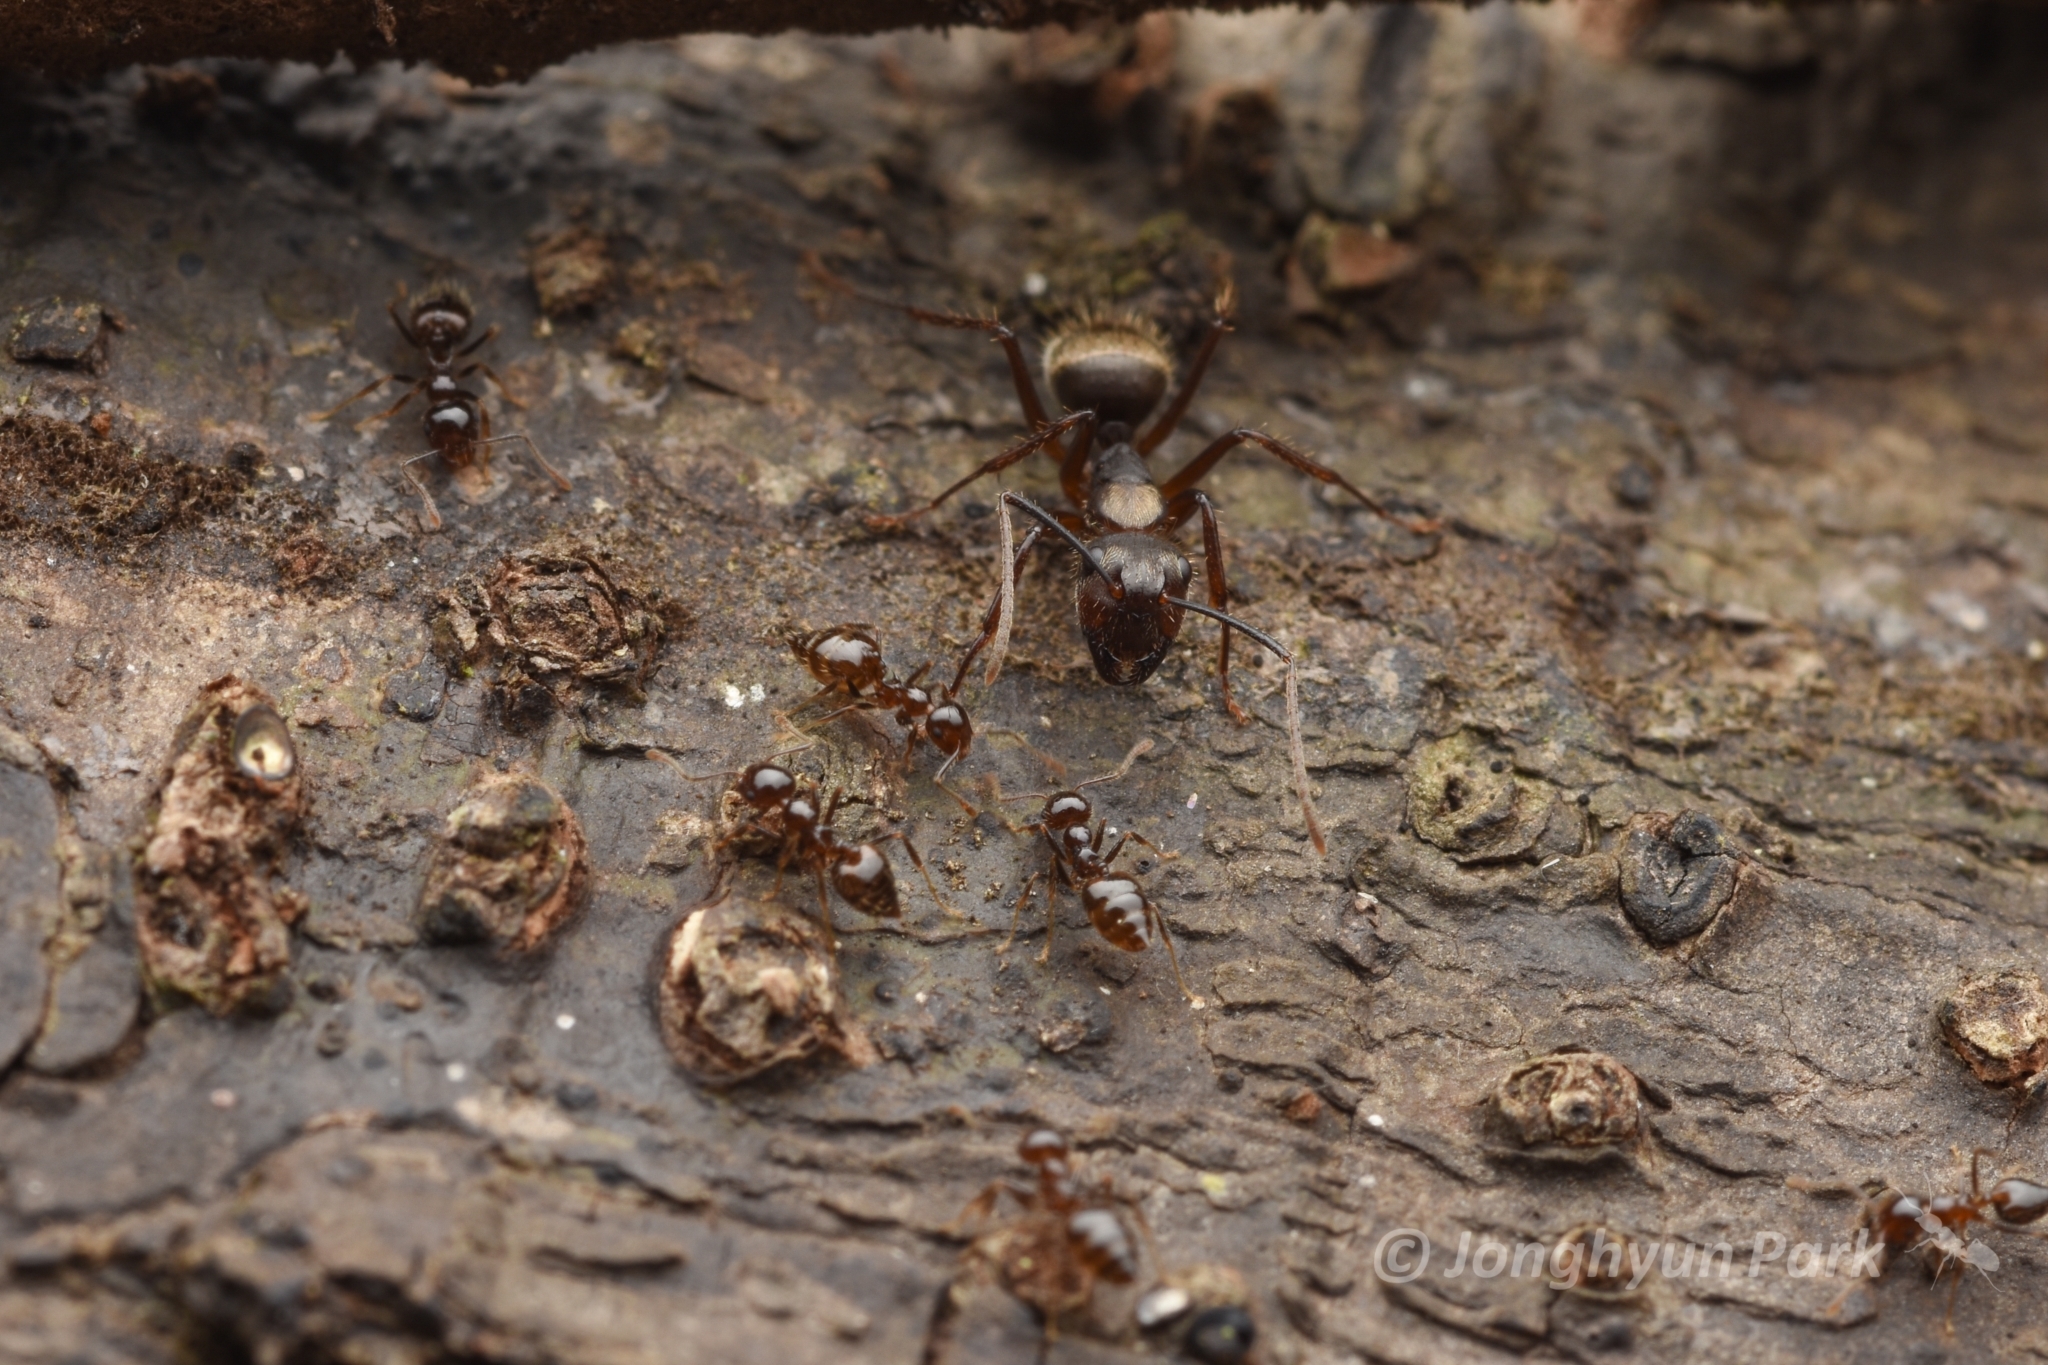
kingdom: Animalia
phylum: Arthropoda
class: Insecta
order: Hymenoptera
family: Formicidae
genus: Crematogaster
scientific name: Crematogaster levior
